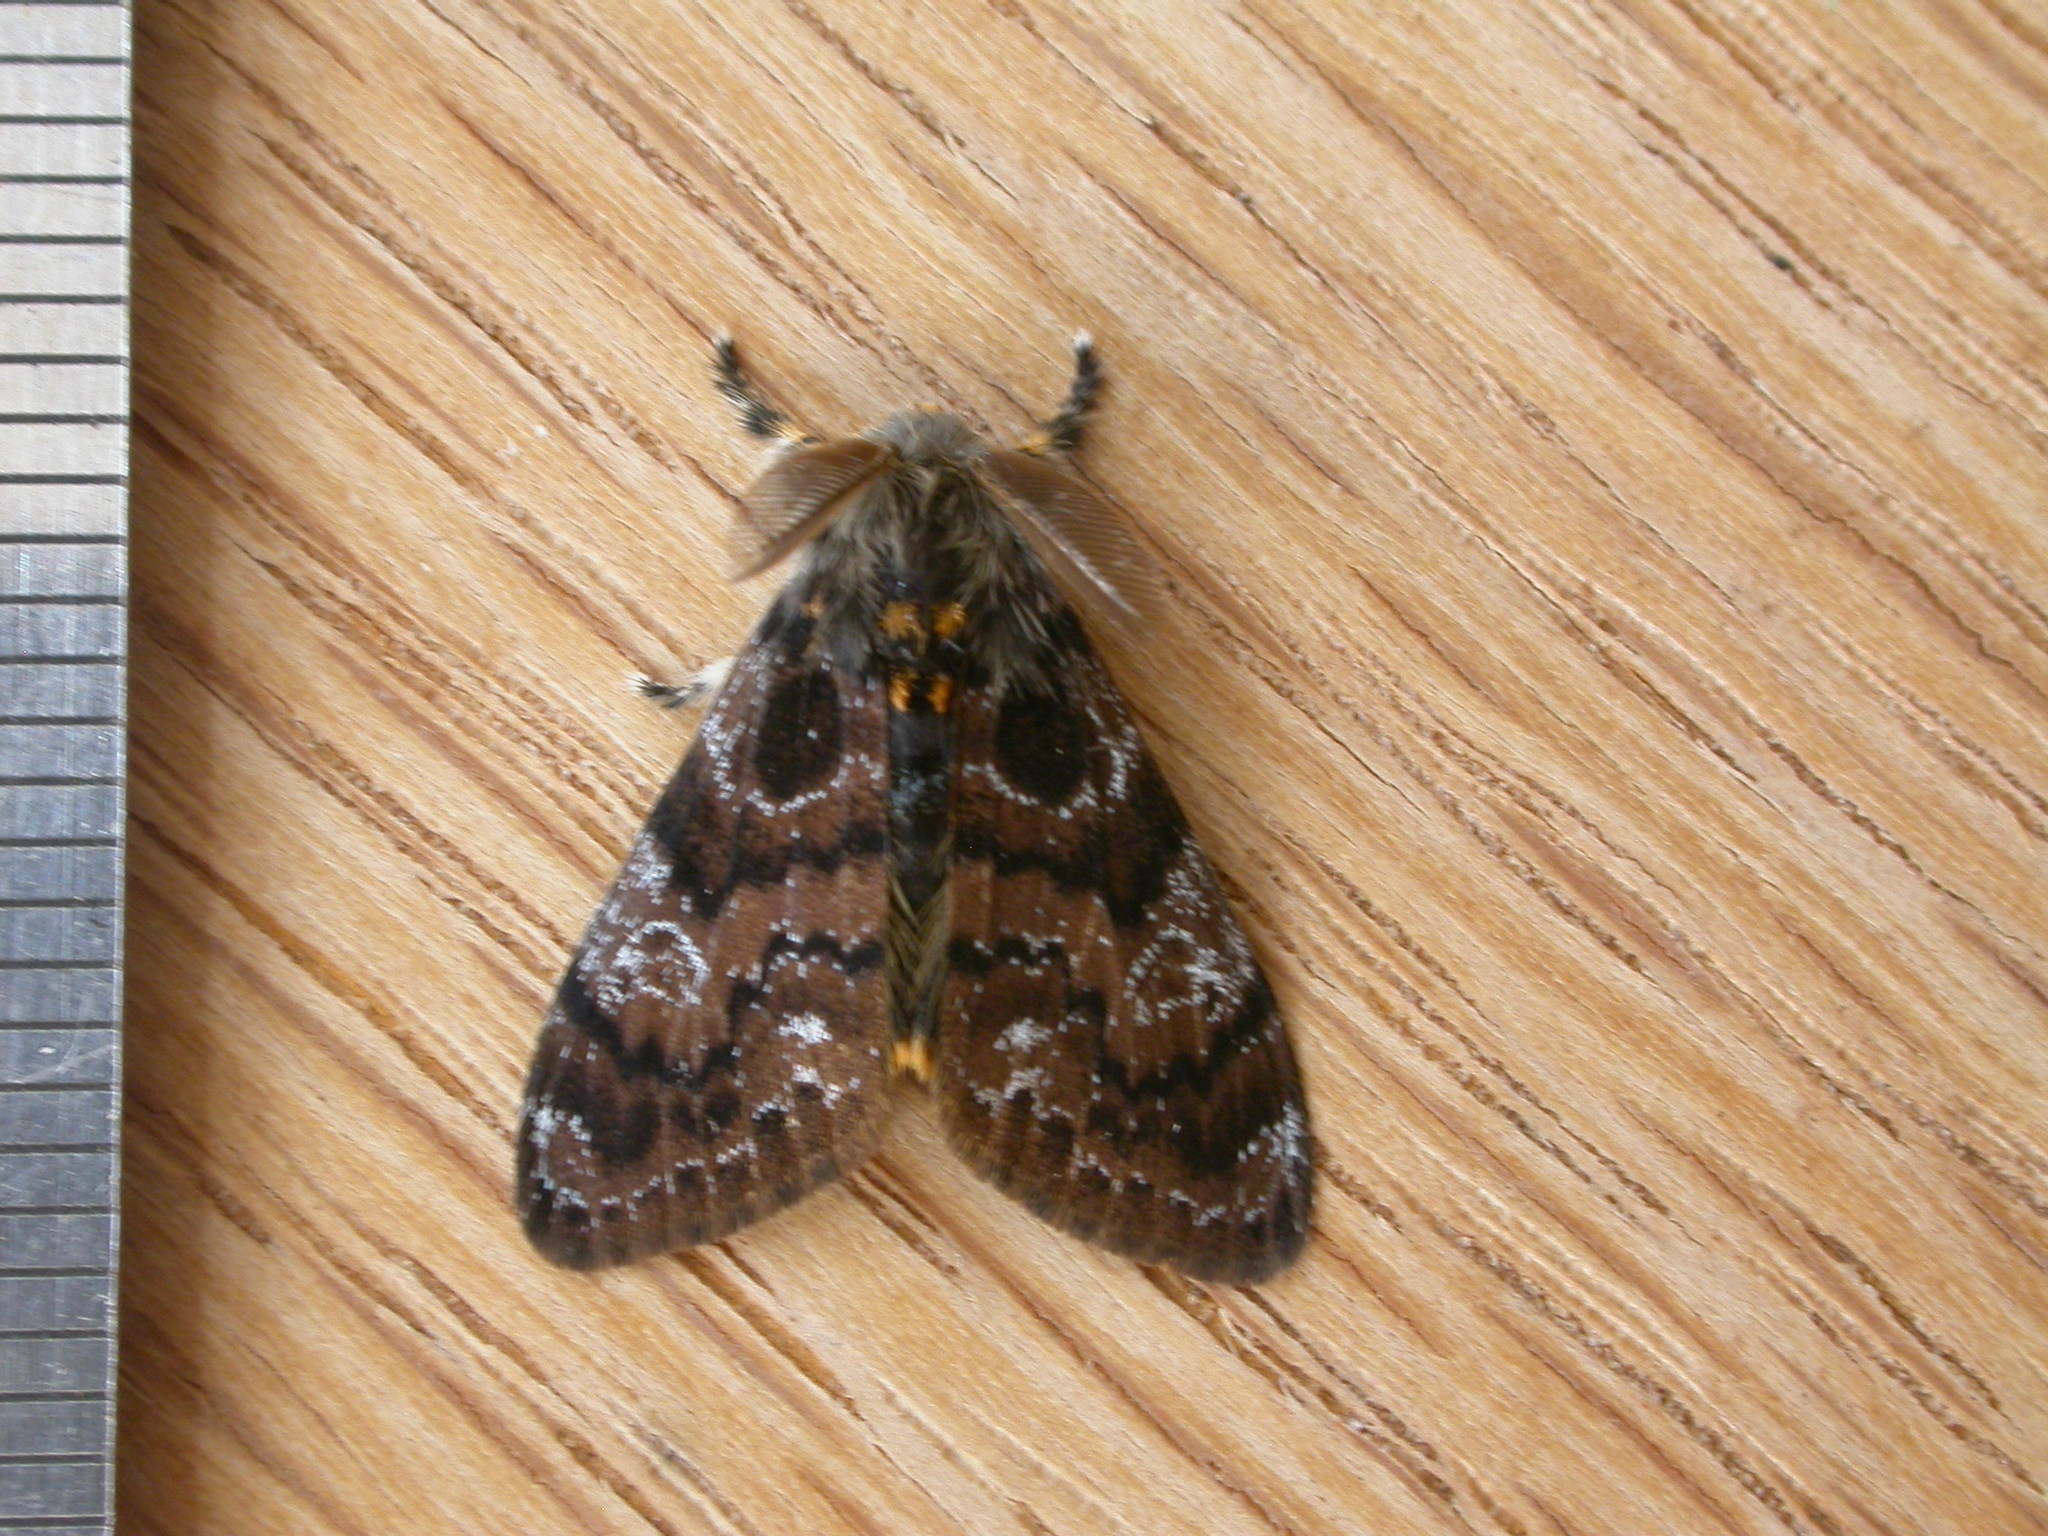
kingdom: Animalia
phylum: Arthropoda
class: Insecta
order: Lepidoptera
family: Erebidae
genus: Orgyia
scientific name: Orgyia
